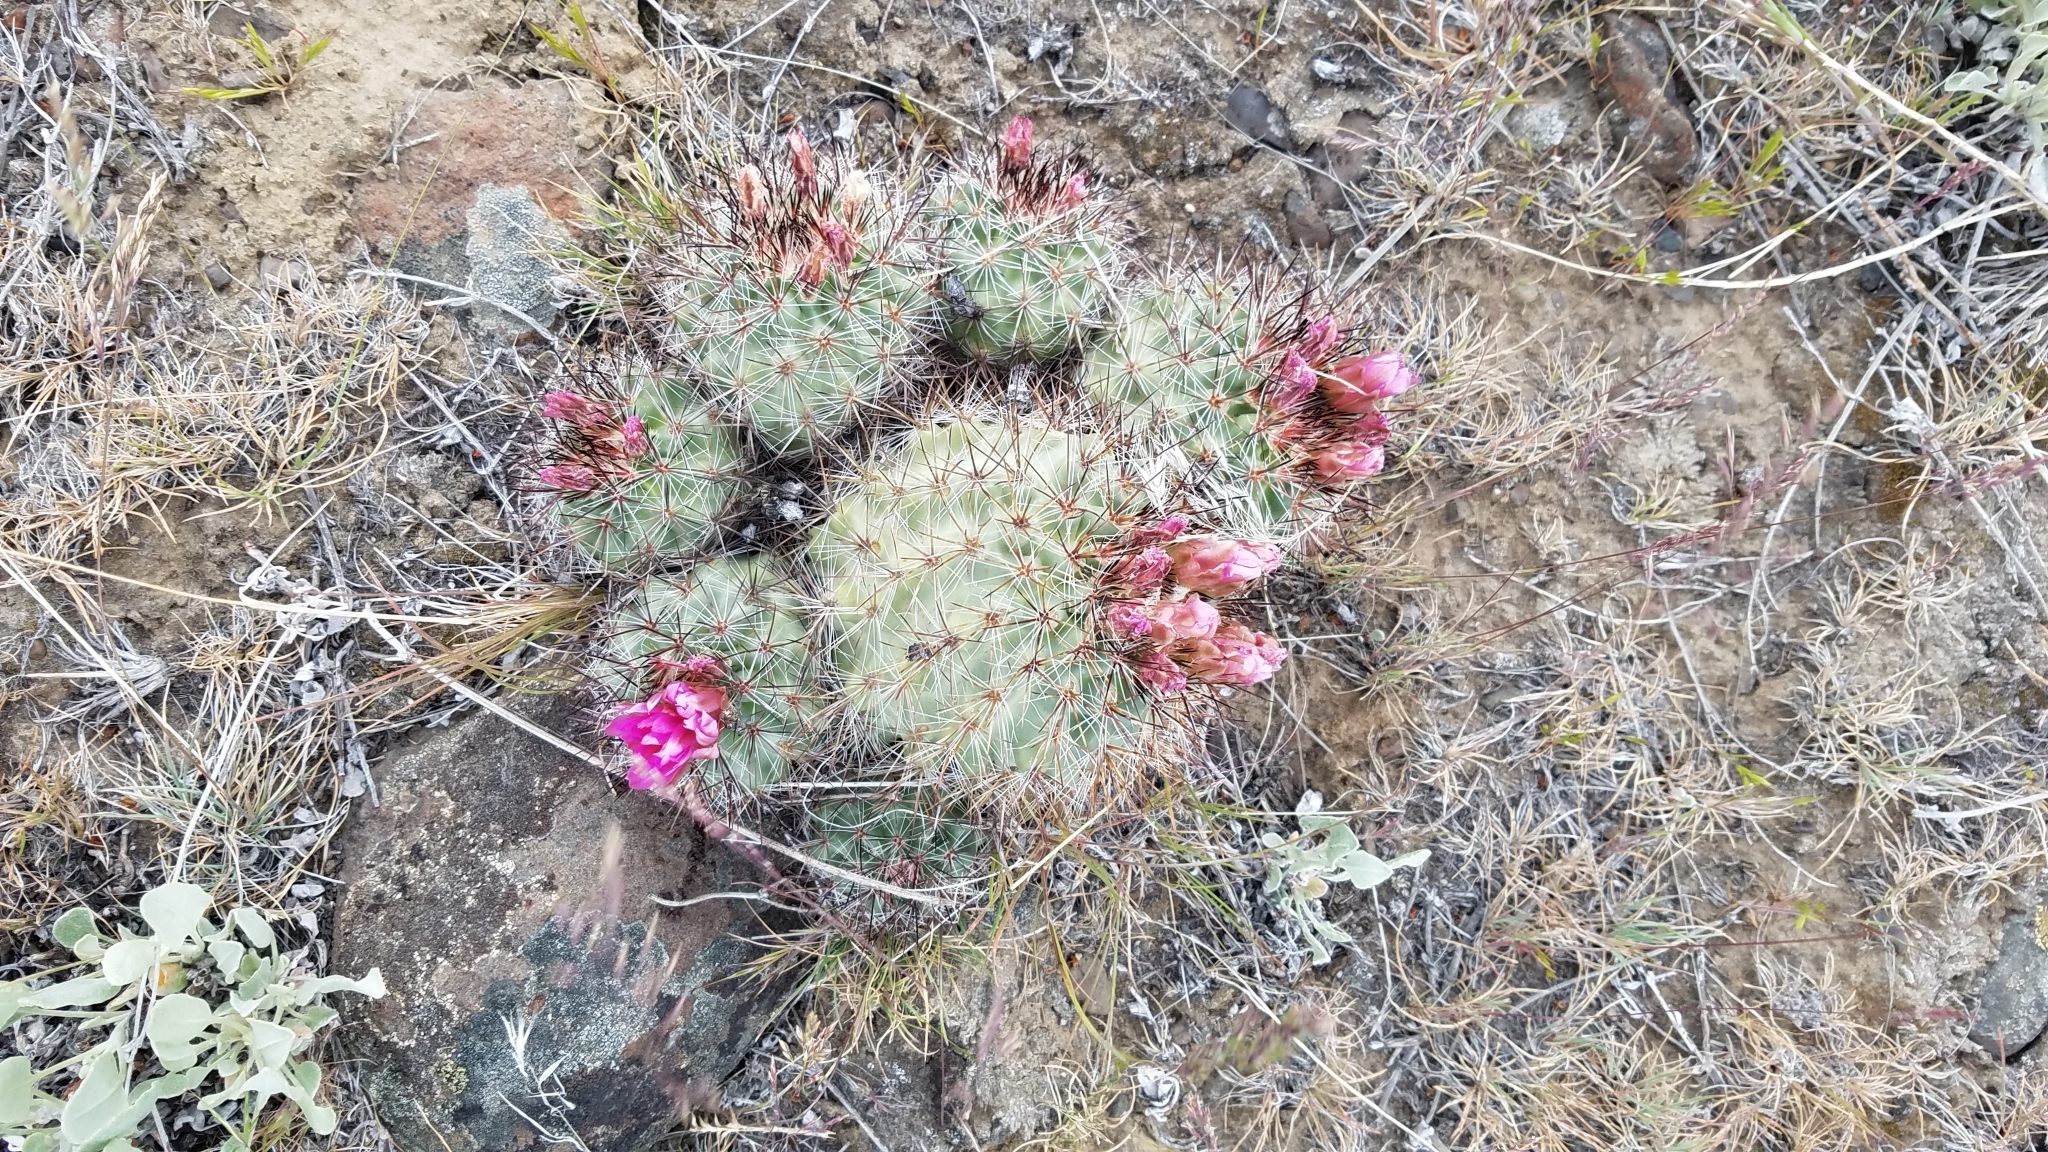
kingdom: Plantae
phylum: Tracheophyta
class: Magnoliopsida
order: Caryophyllales
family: Cactaceae
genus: Pediocactus
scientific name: Pediocactus nigrispinus
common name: Simpson's hedgehog cactus
